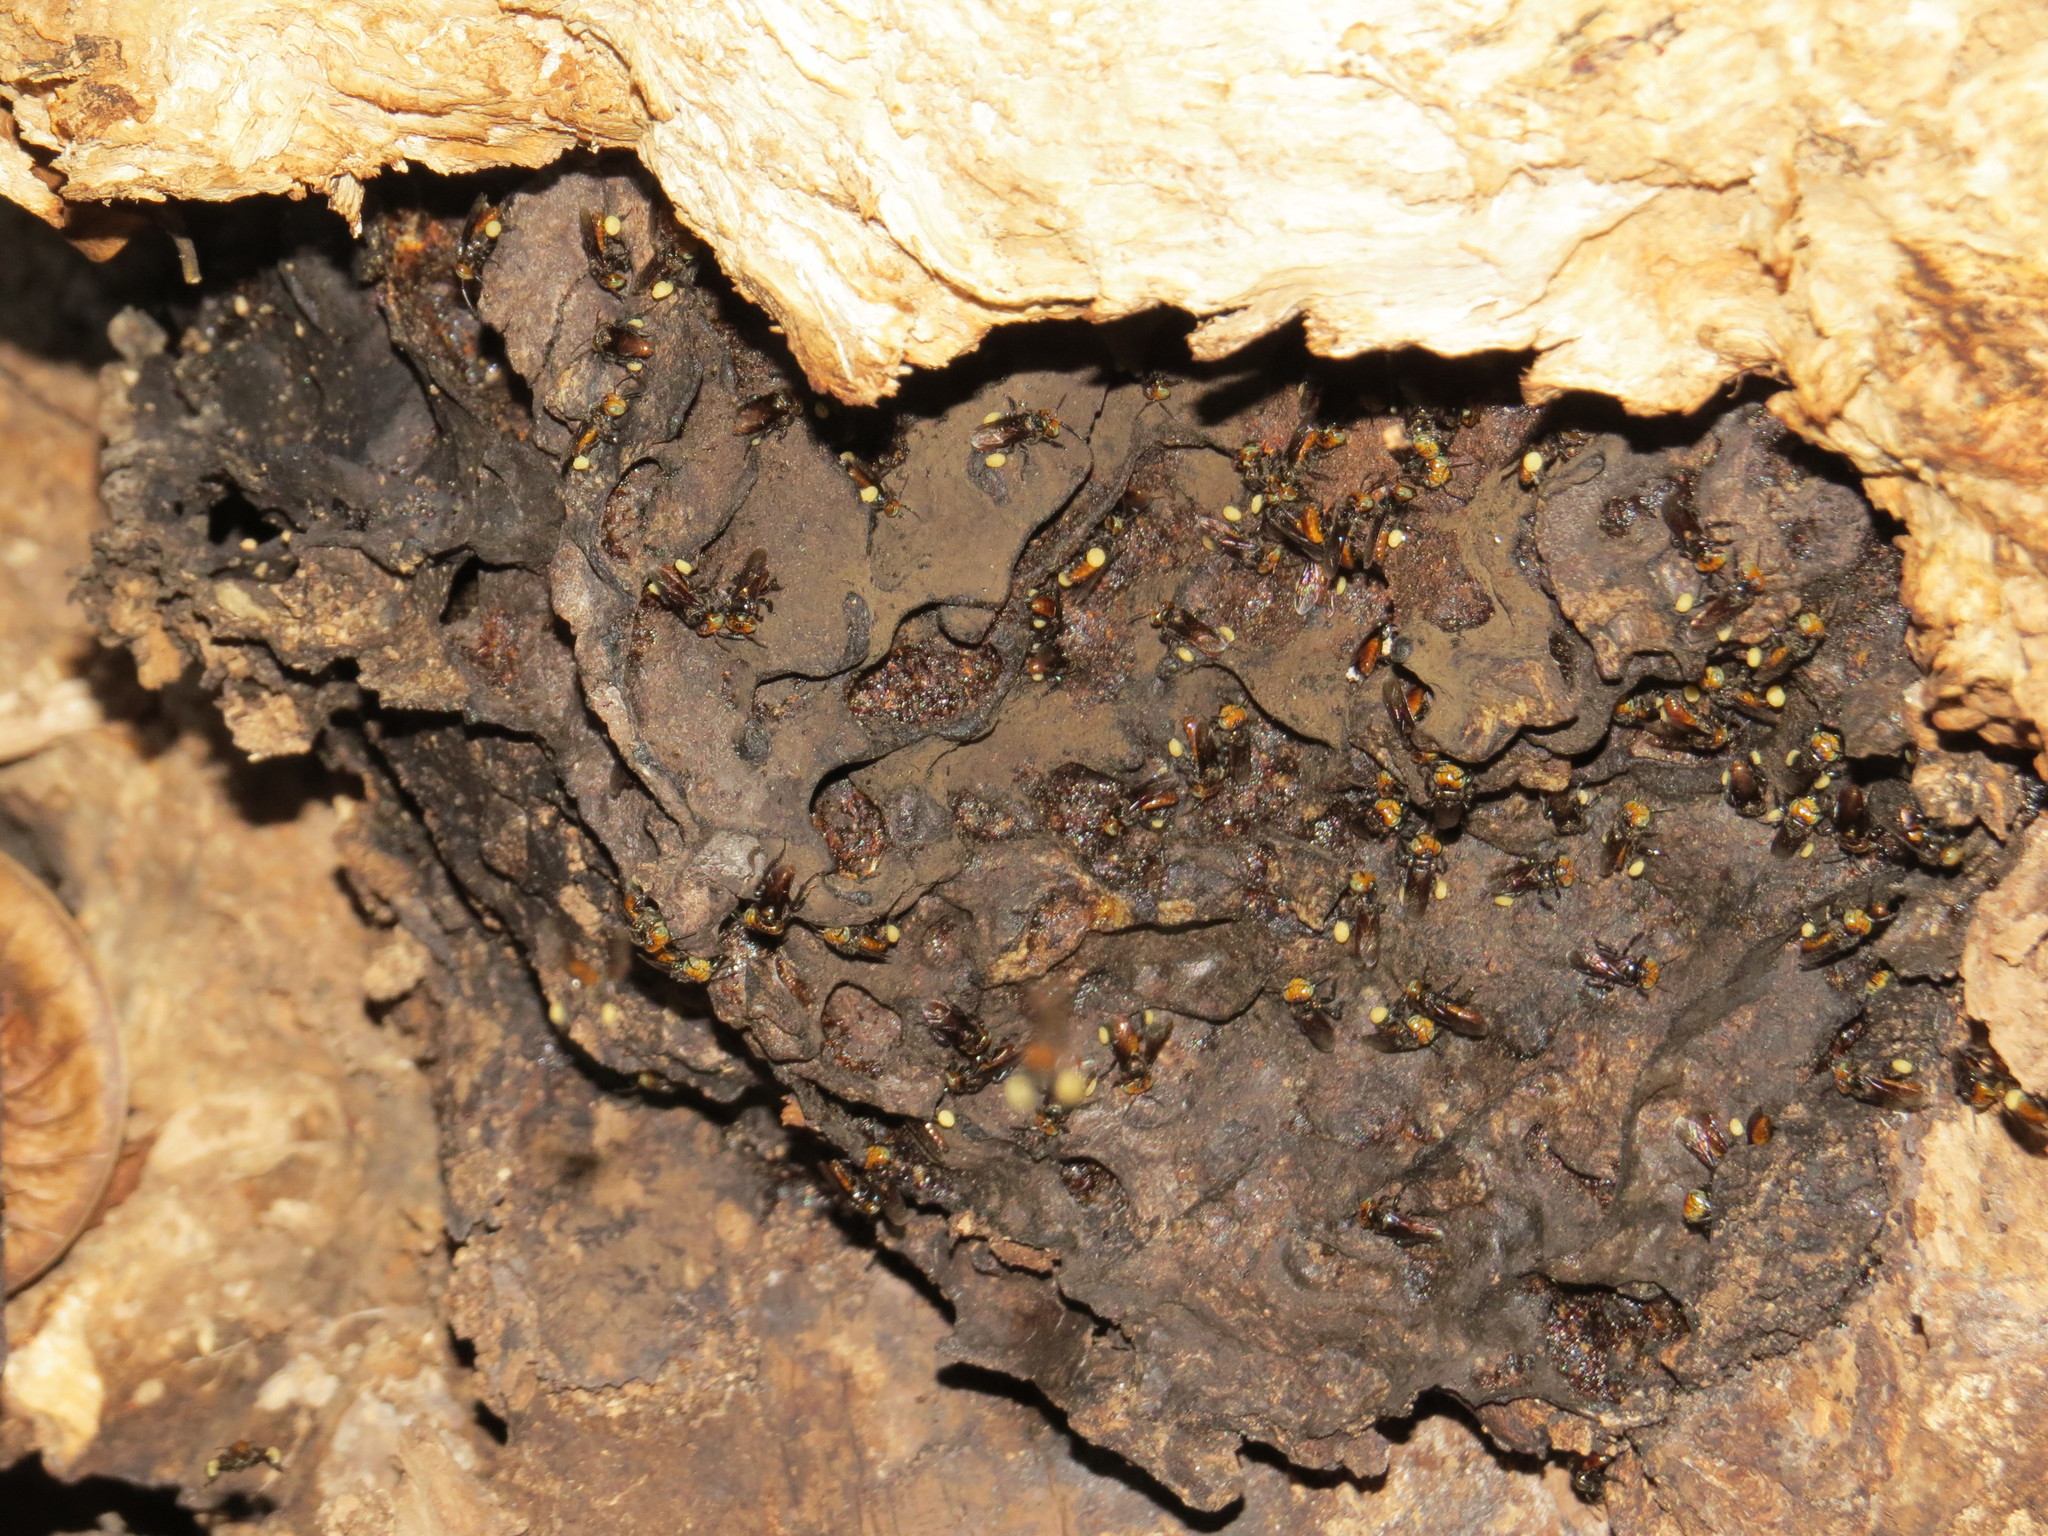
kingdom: Animalia
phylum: Arthropoda
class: Insecta
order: Hymenoptera
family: Apidae
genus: Oxytrigona
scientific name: Oxytrigona tataira
